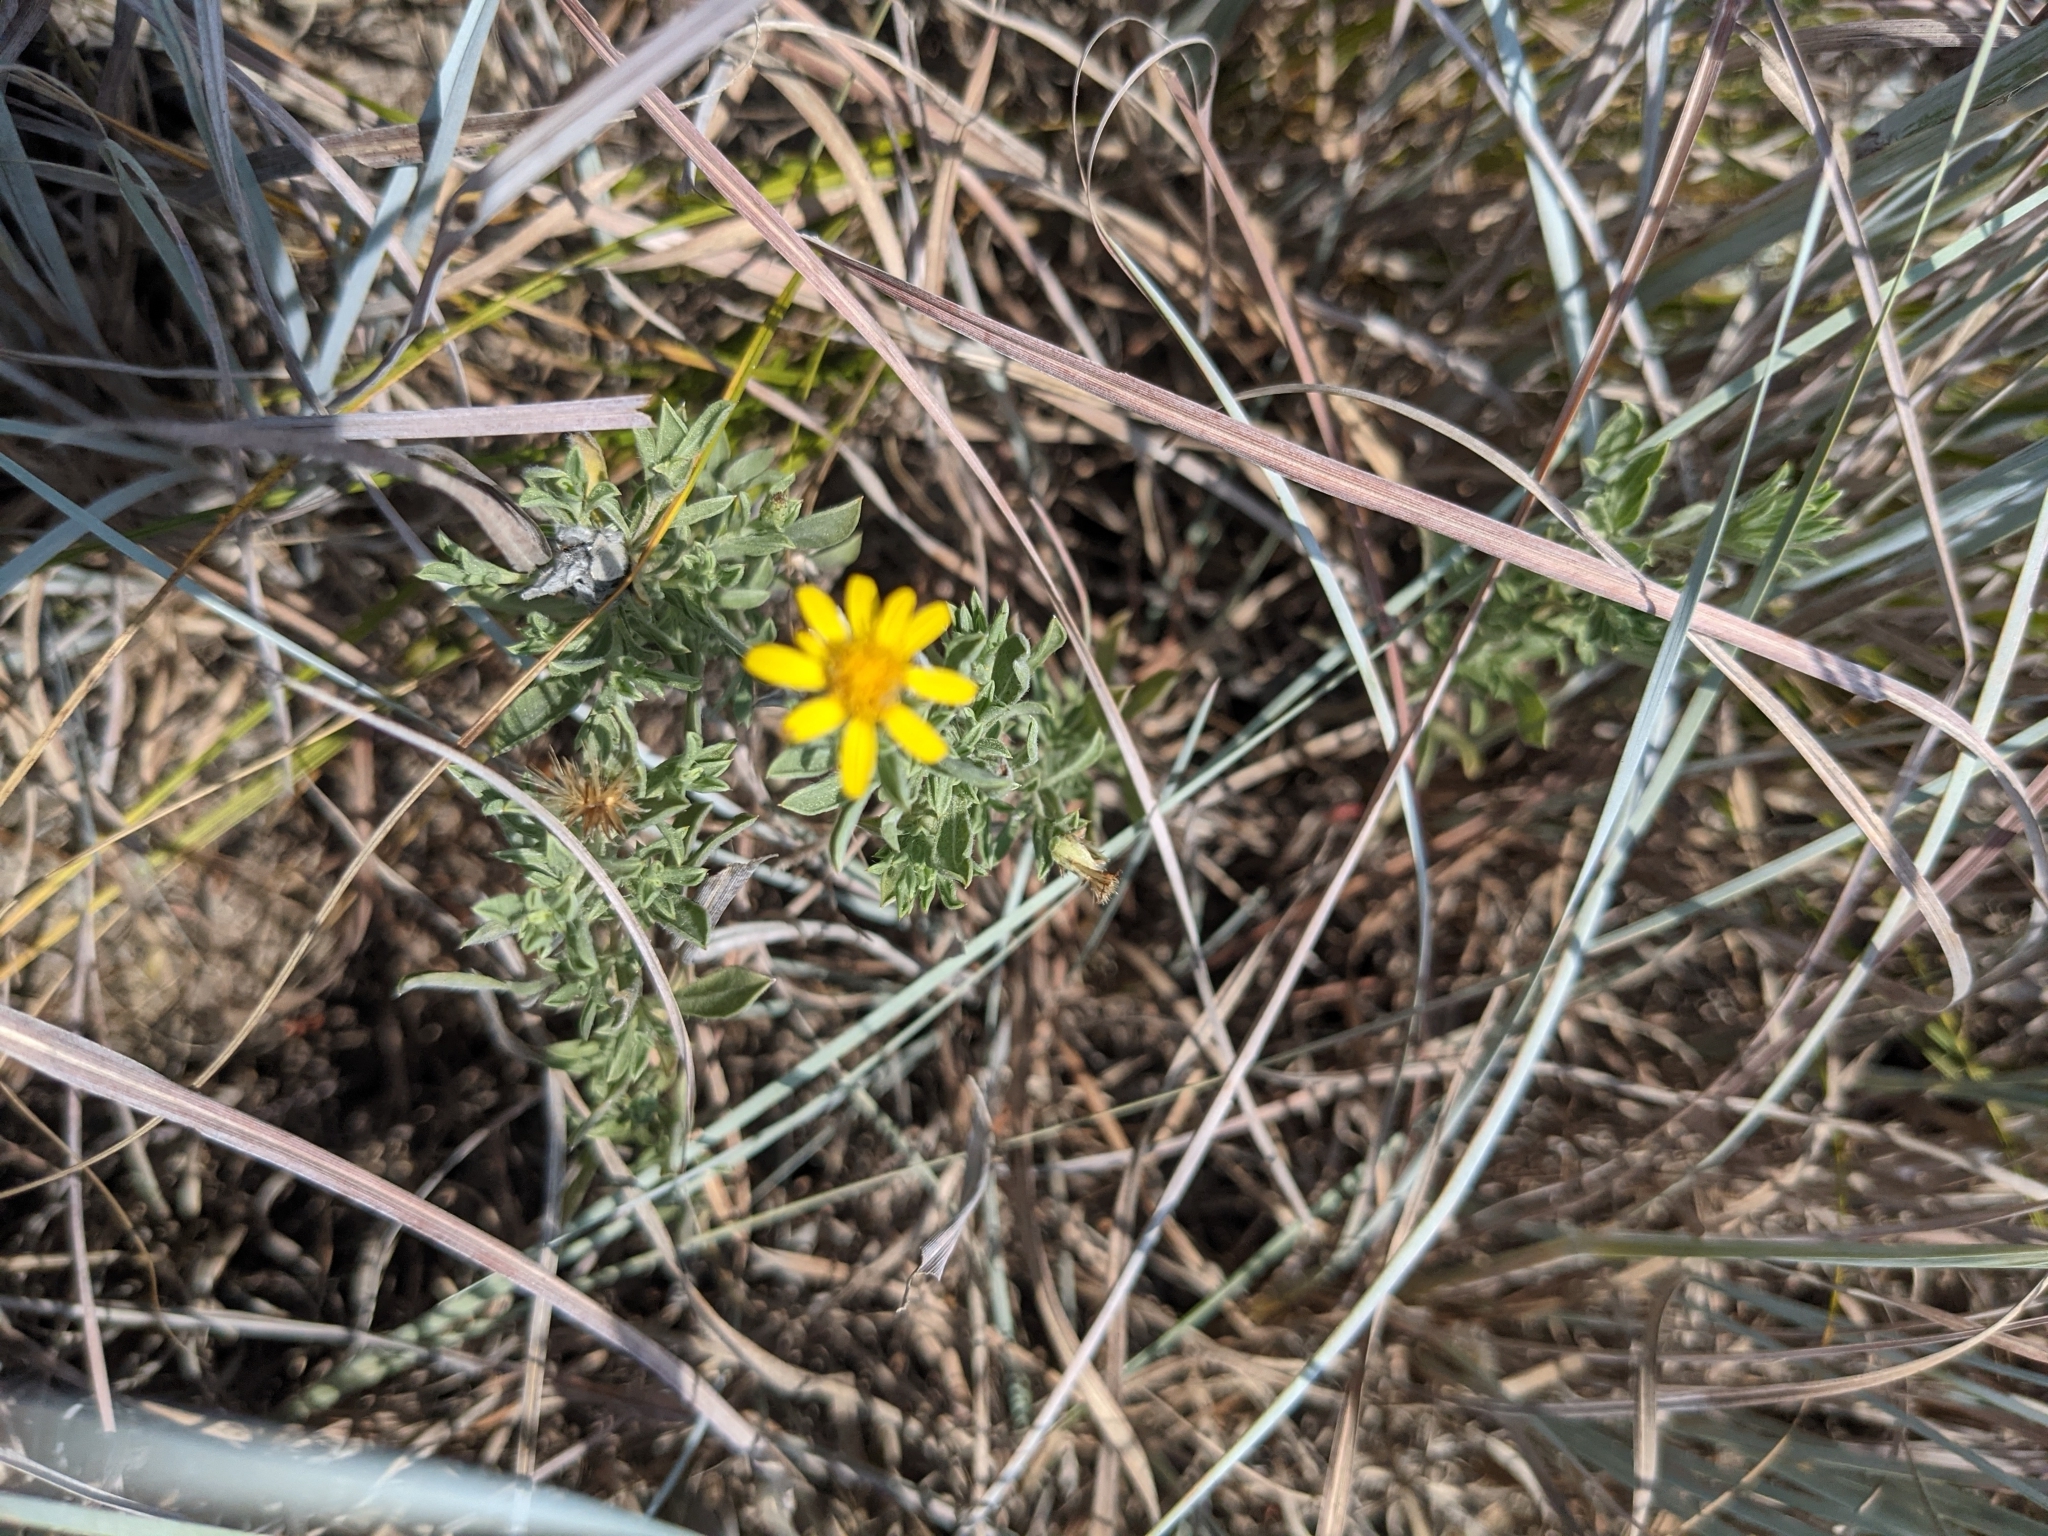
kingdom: Plantae
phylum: Tracheophyta
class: Magnoliopsida
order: Asterales
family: Asteraceae
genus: Heterotheca
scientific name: Heterotheca canescens
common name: Hoary golden-aster
